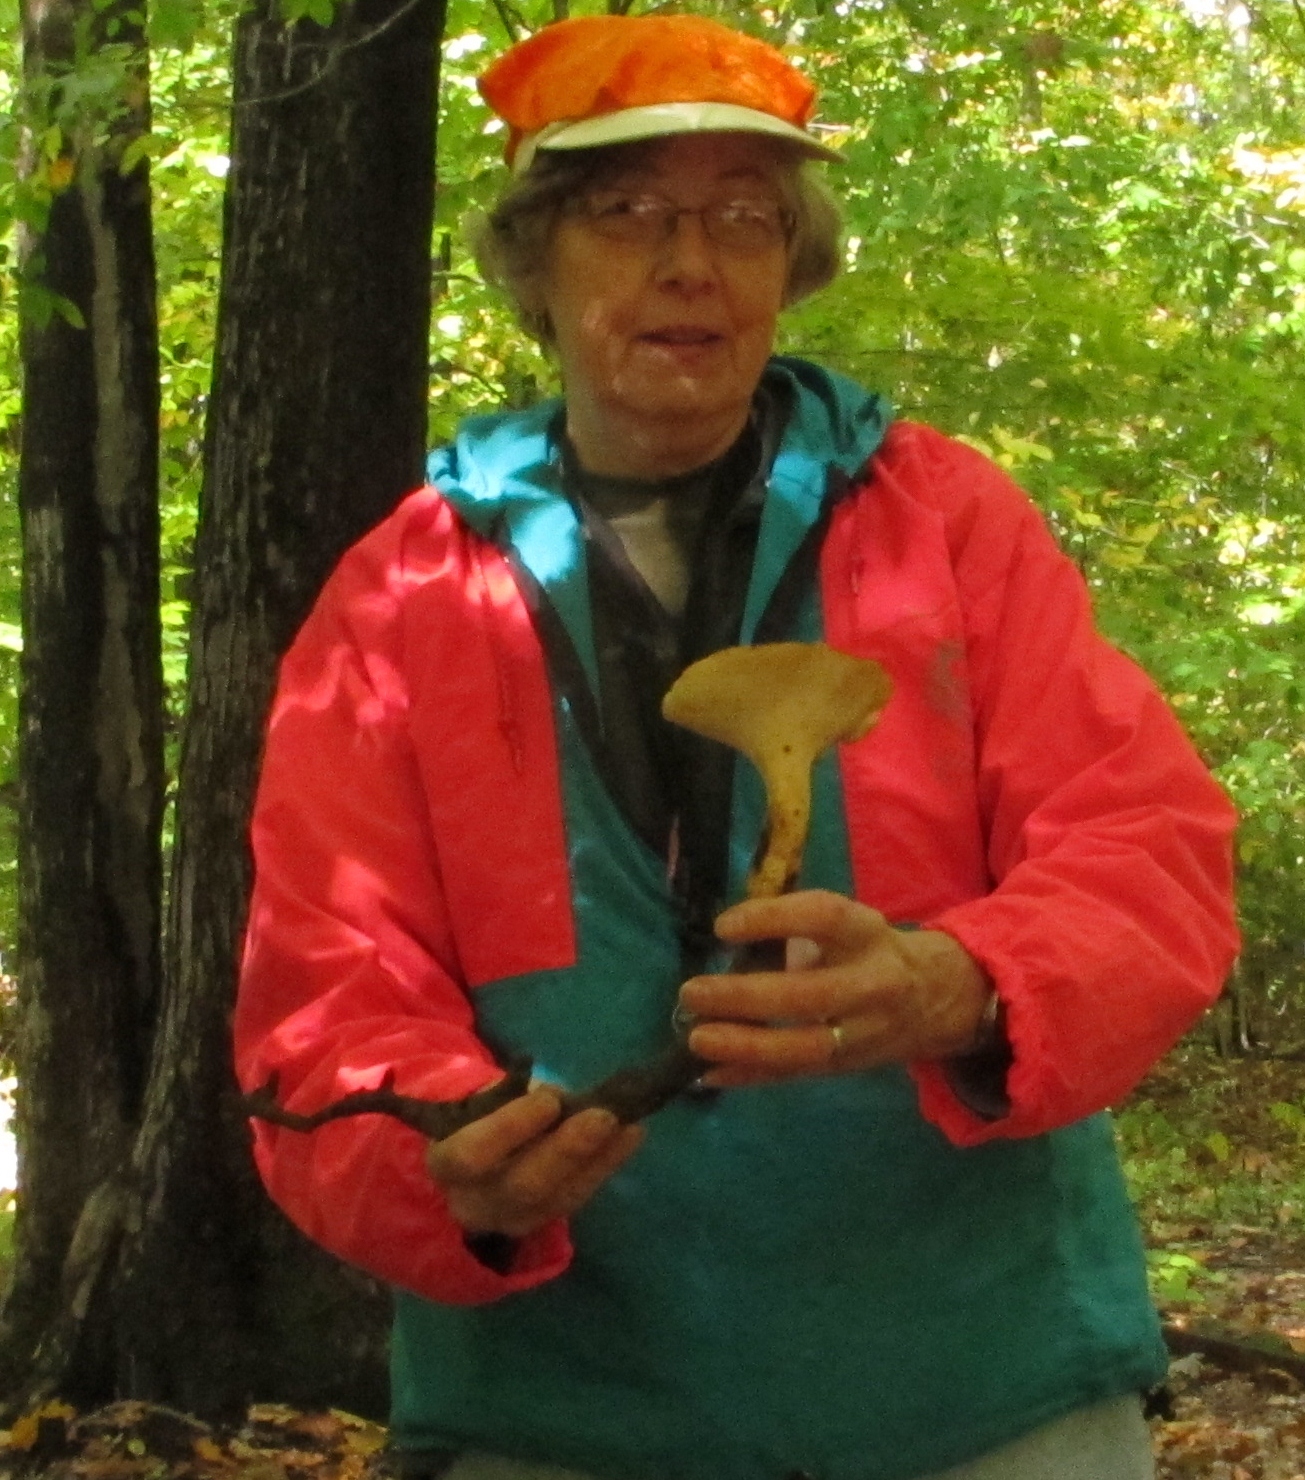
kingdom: Fungi
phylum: Basidiomycota
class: Agaricomycetes
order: Polyporales
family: Polyporaceae
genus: Polyporus
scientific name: Polyporus radicatus
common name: Rooting polypore
